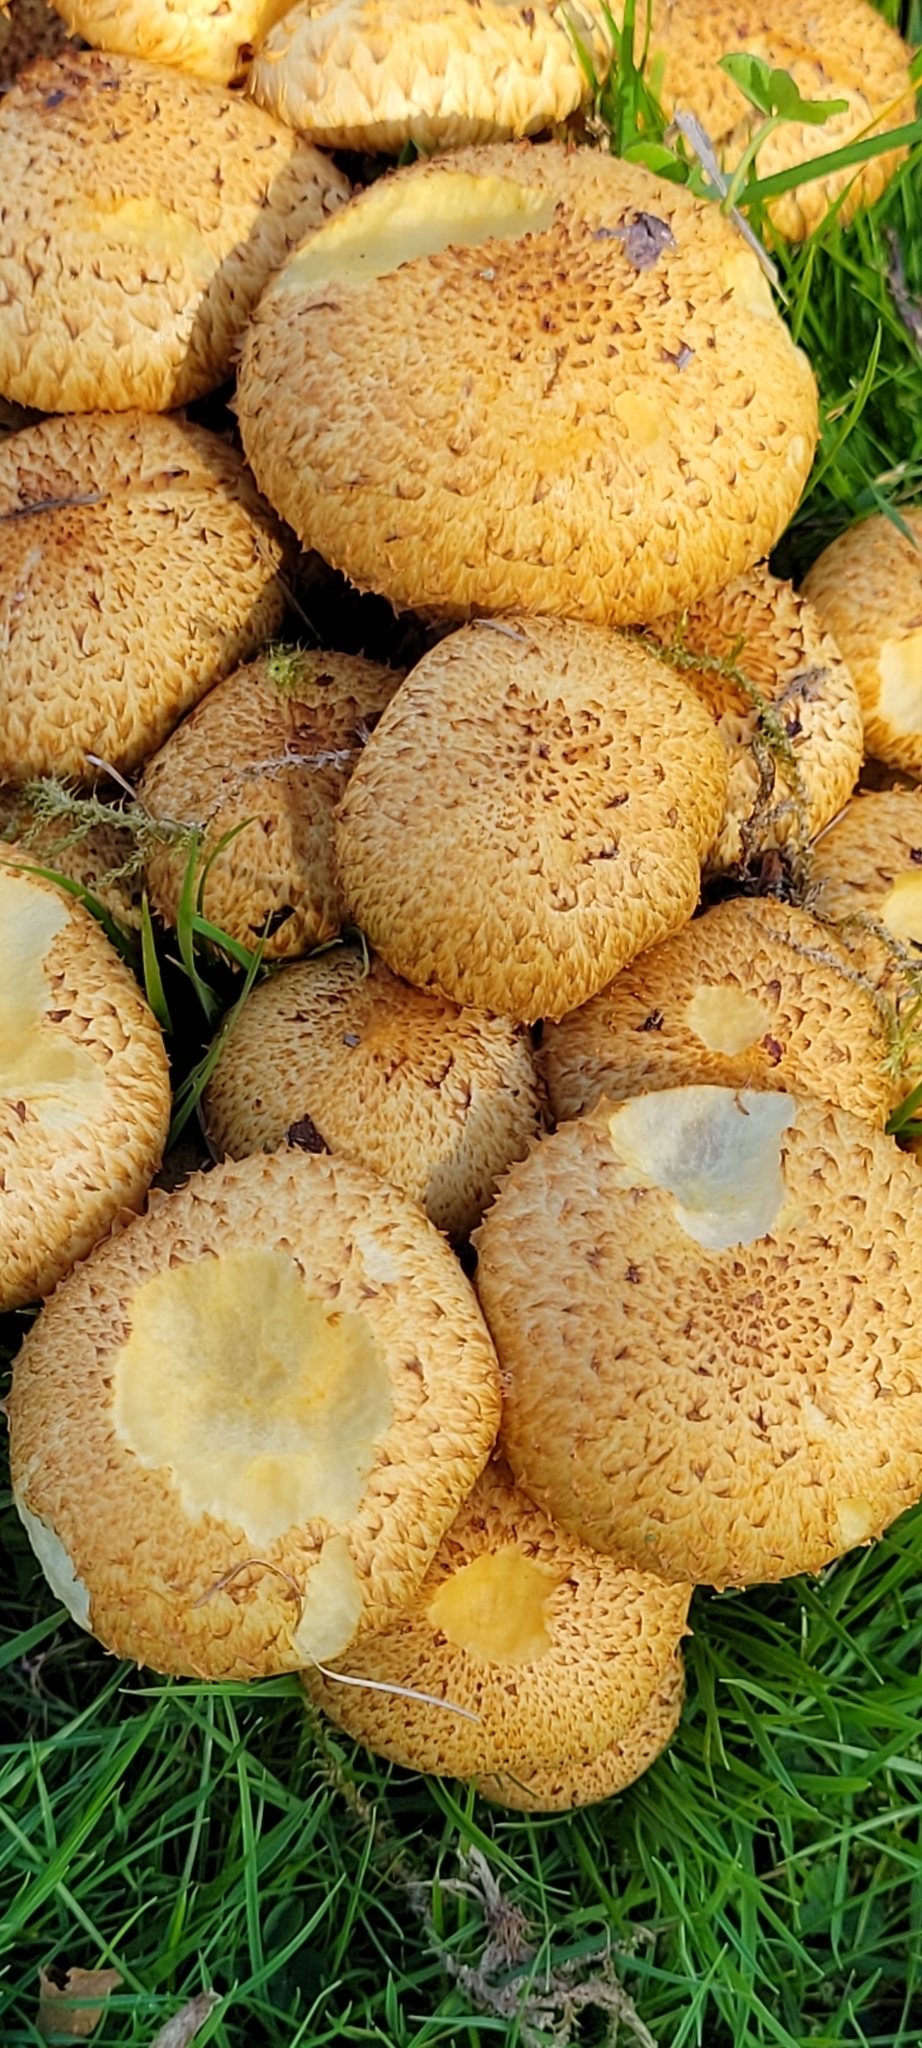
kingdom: Fungi
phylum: Basidiomycota
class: Agaricomycetes
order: Agaricales
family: Strophariaceae
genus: Pholiota
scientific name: Pholiota squarrosa
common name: Shaggy pholiota
